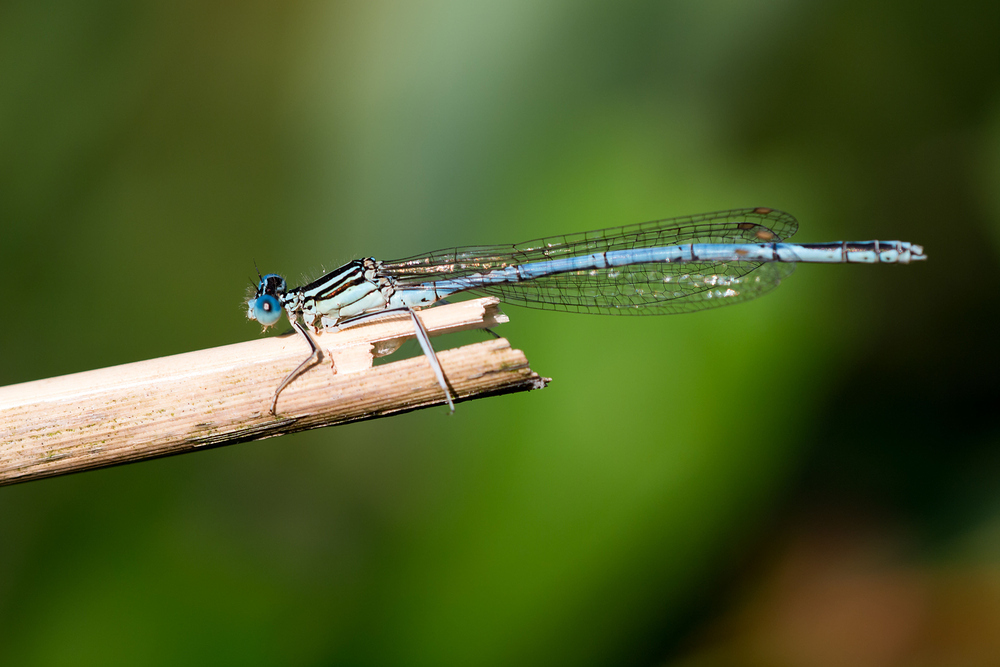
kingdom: Animalia
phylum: Arthropoda
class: Insecta
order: Odonata
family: Platycnemididae
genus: Platycnemis
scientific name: Platycnemis pennipes
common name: White-legged damselfly
